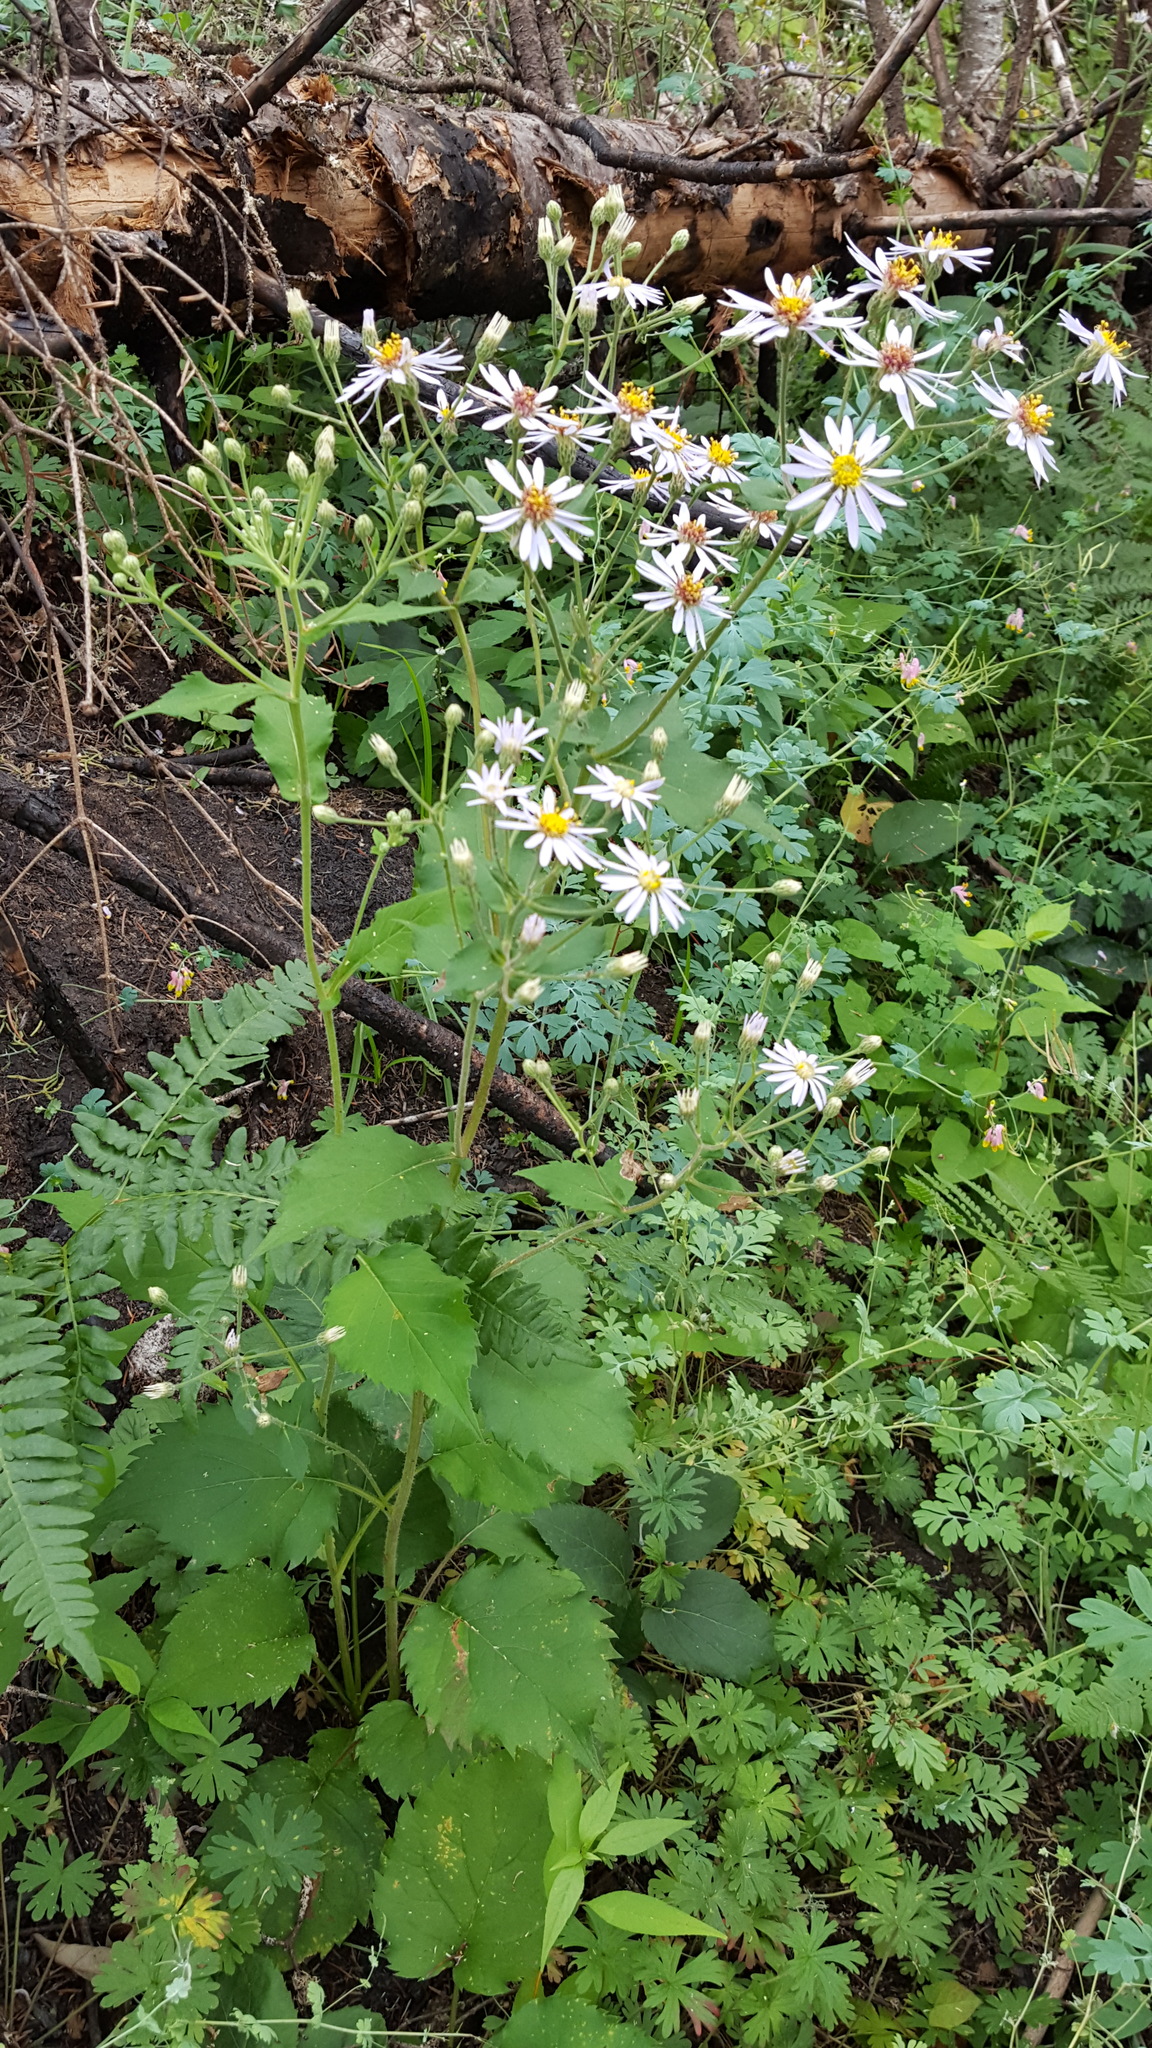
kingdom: Plantae
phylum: Tracheophyta
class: Magnoliopsida
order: Asterales
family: Asteraceae
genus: Eurybia
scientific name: Eurybia macrophylla
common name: Big-leaved aster
